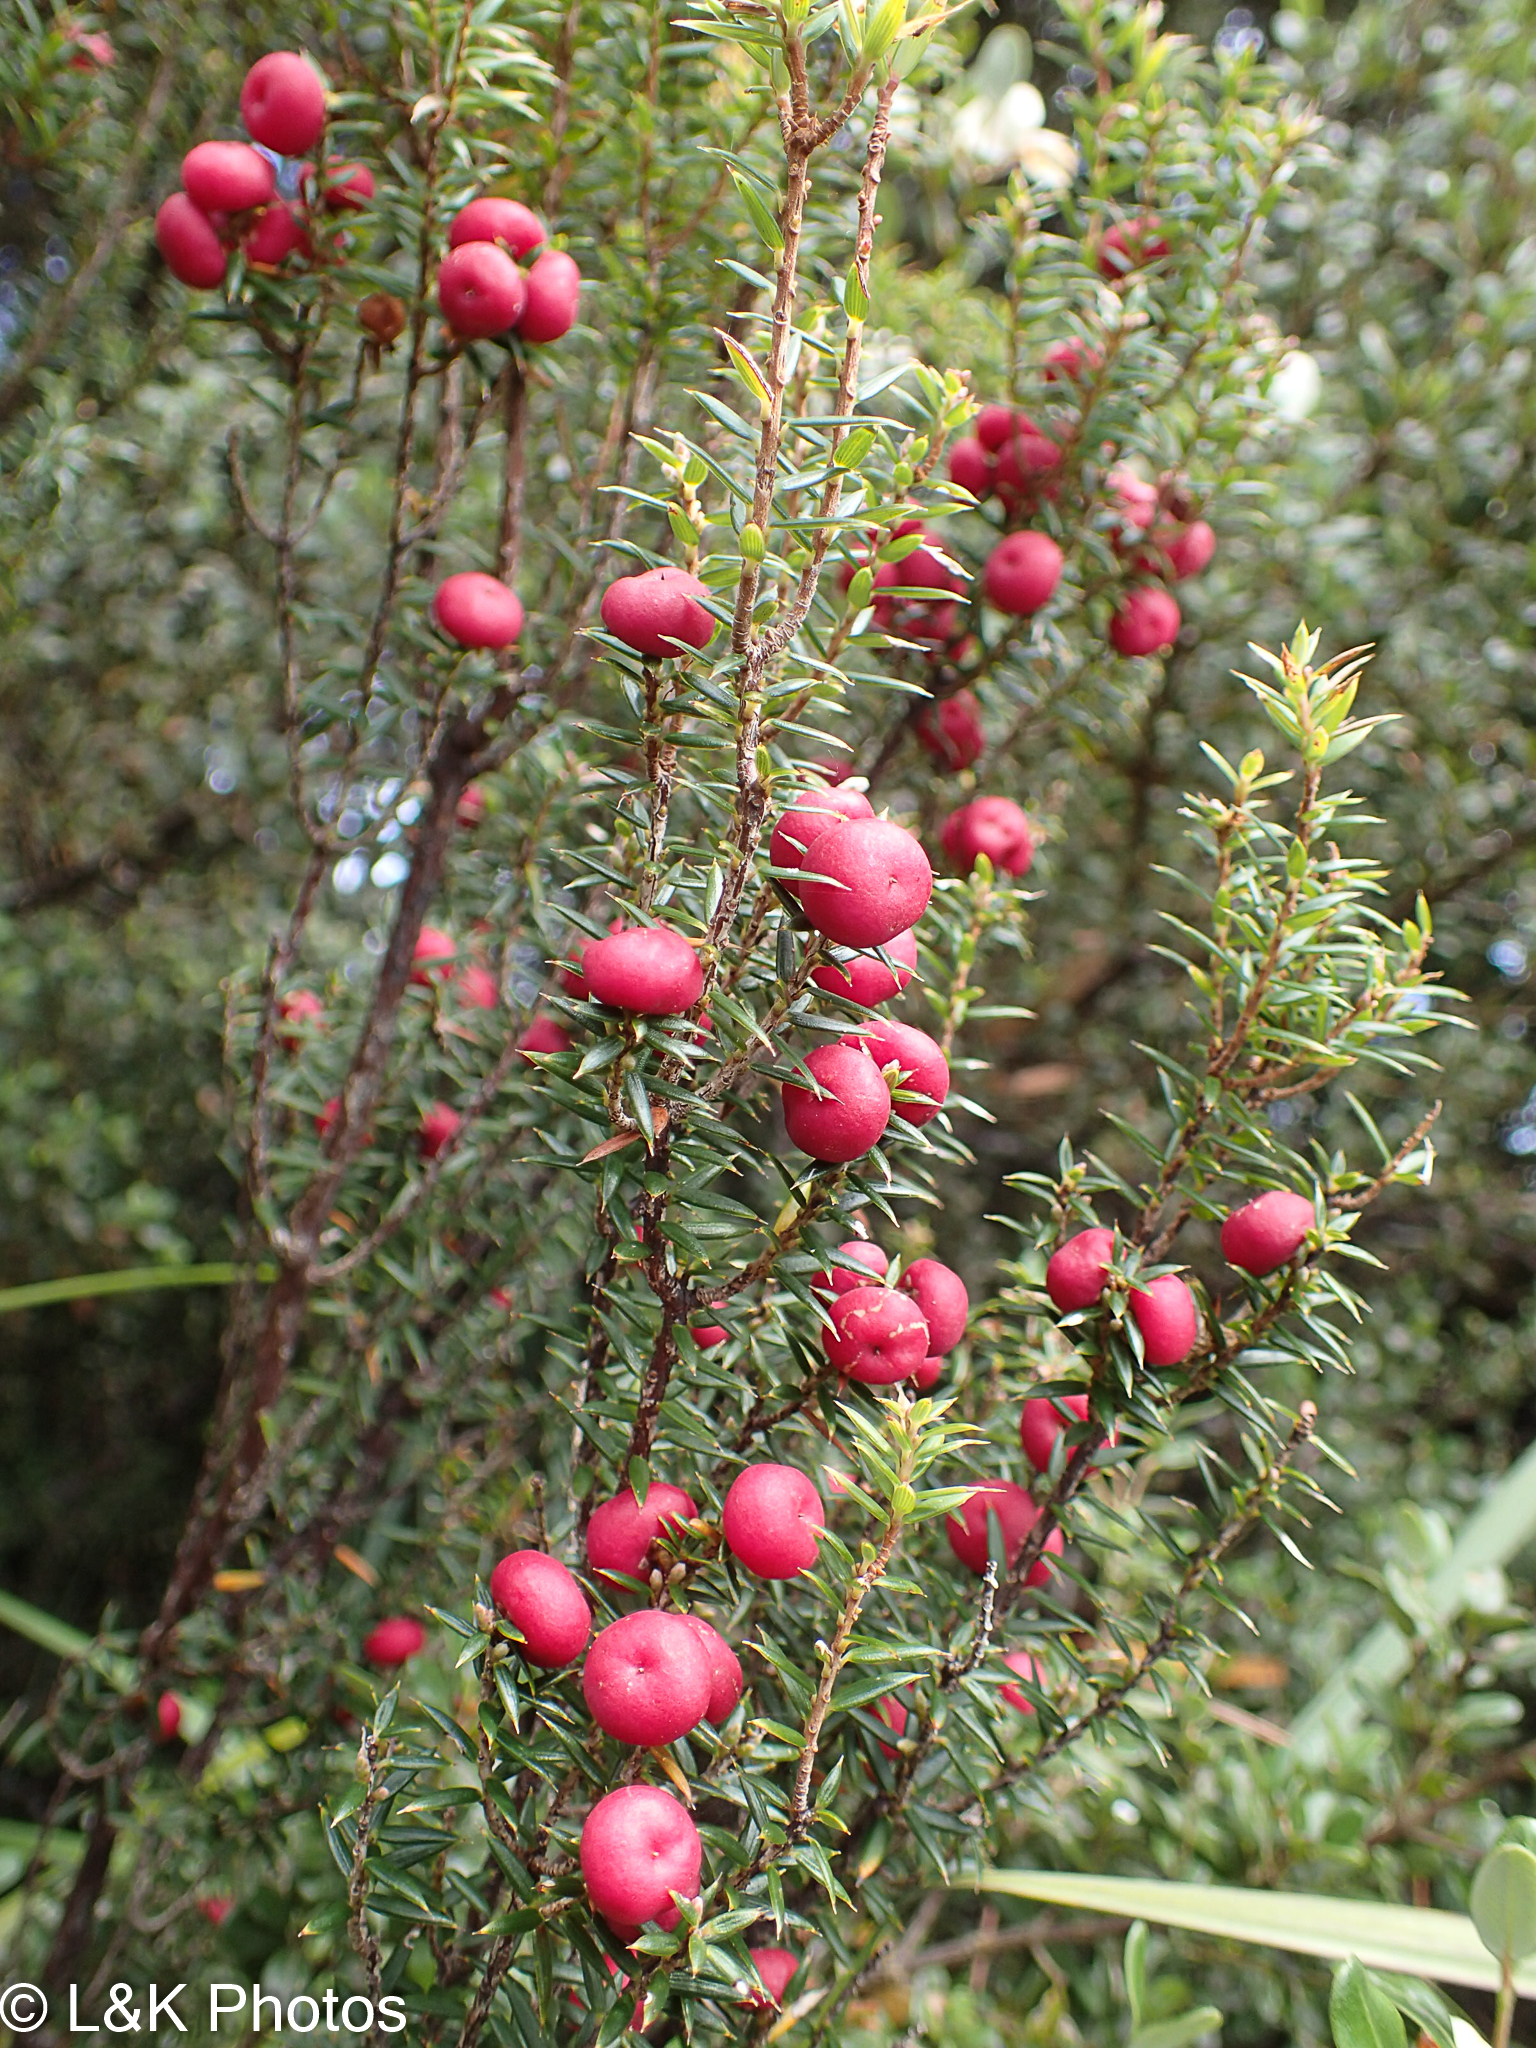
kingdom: Plantae
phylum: Tracheophyta
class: Magnoliopsida
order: Ericales
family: Ericaceae
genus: Leptecophylla
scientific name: Leptecophylla parvifolia
